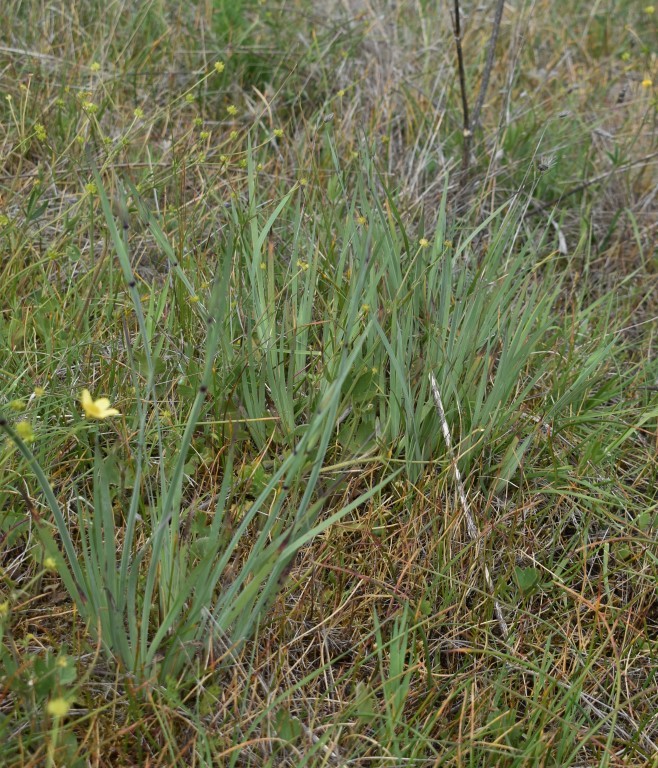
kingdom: Plantae
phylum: Tracheophyta
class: Liliopsida
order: Asparagales
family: Iridaceae
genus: Sisyrinchium
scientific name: Sisyrinchium hitchcockii
